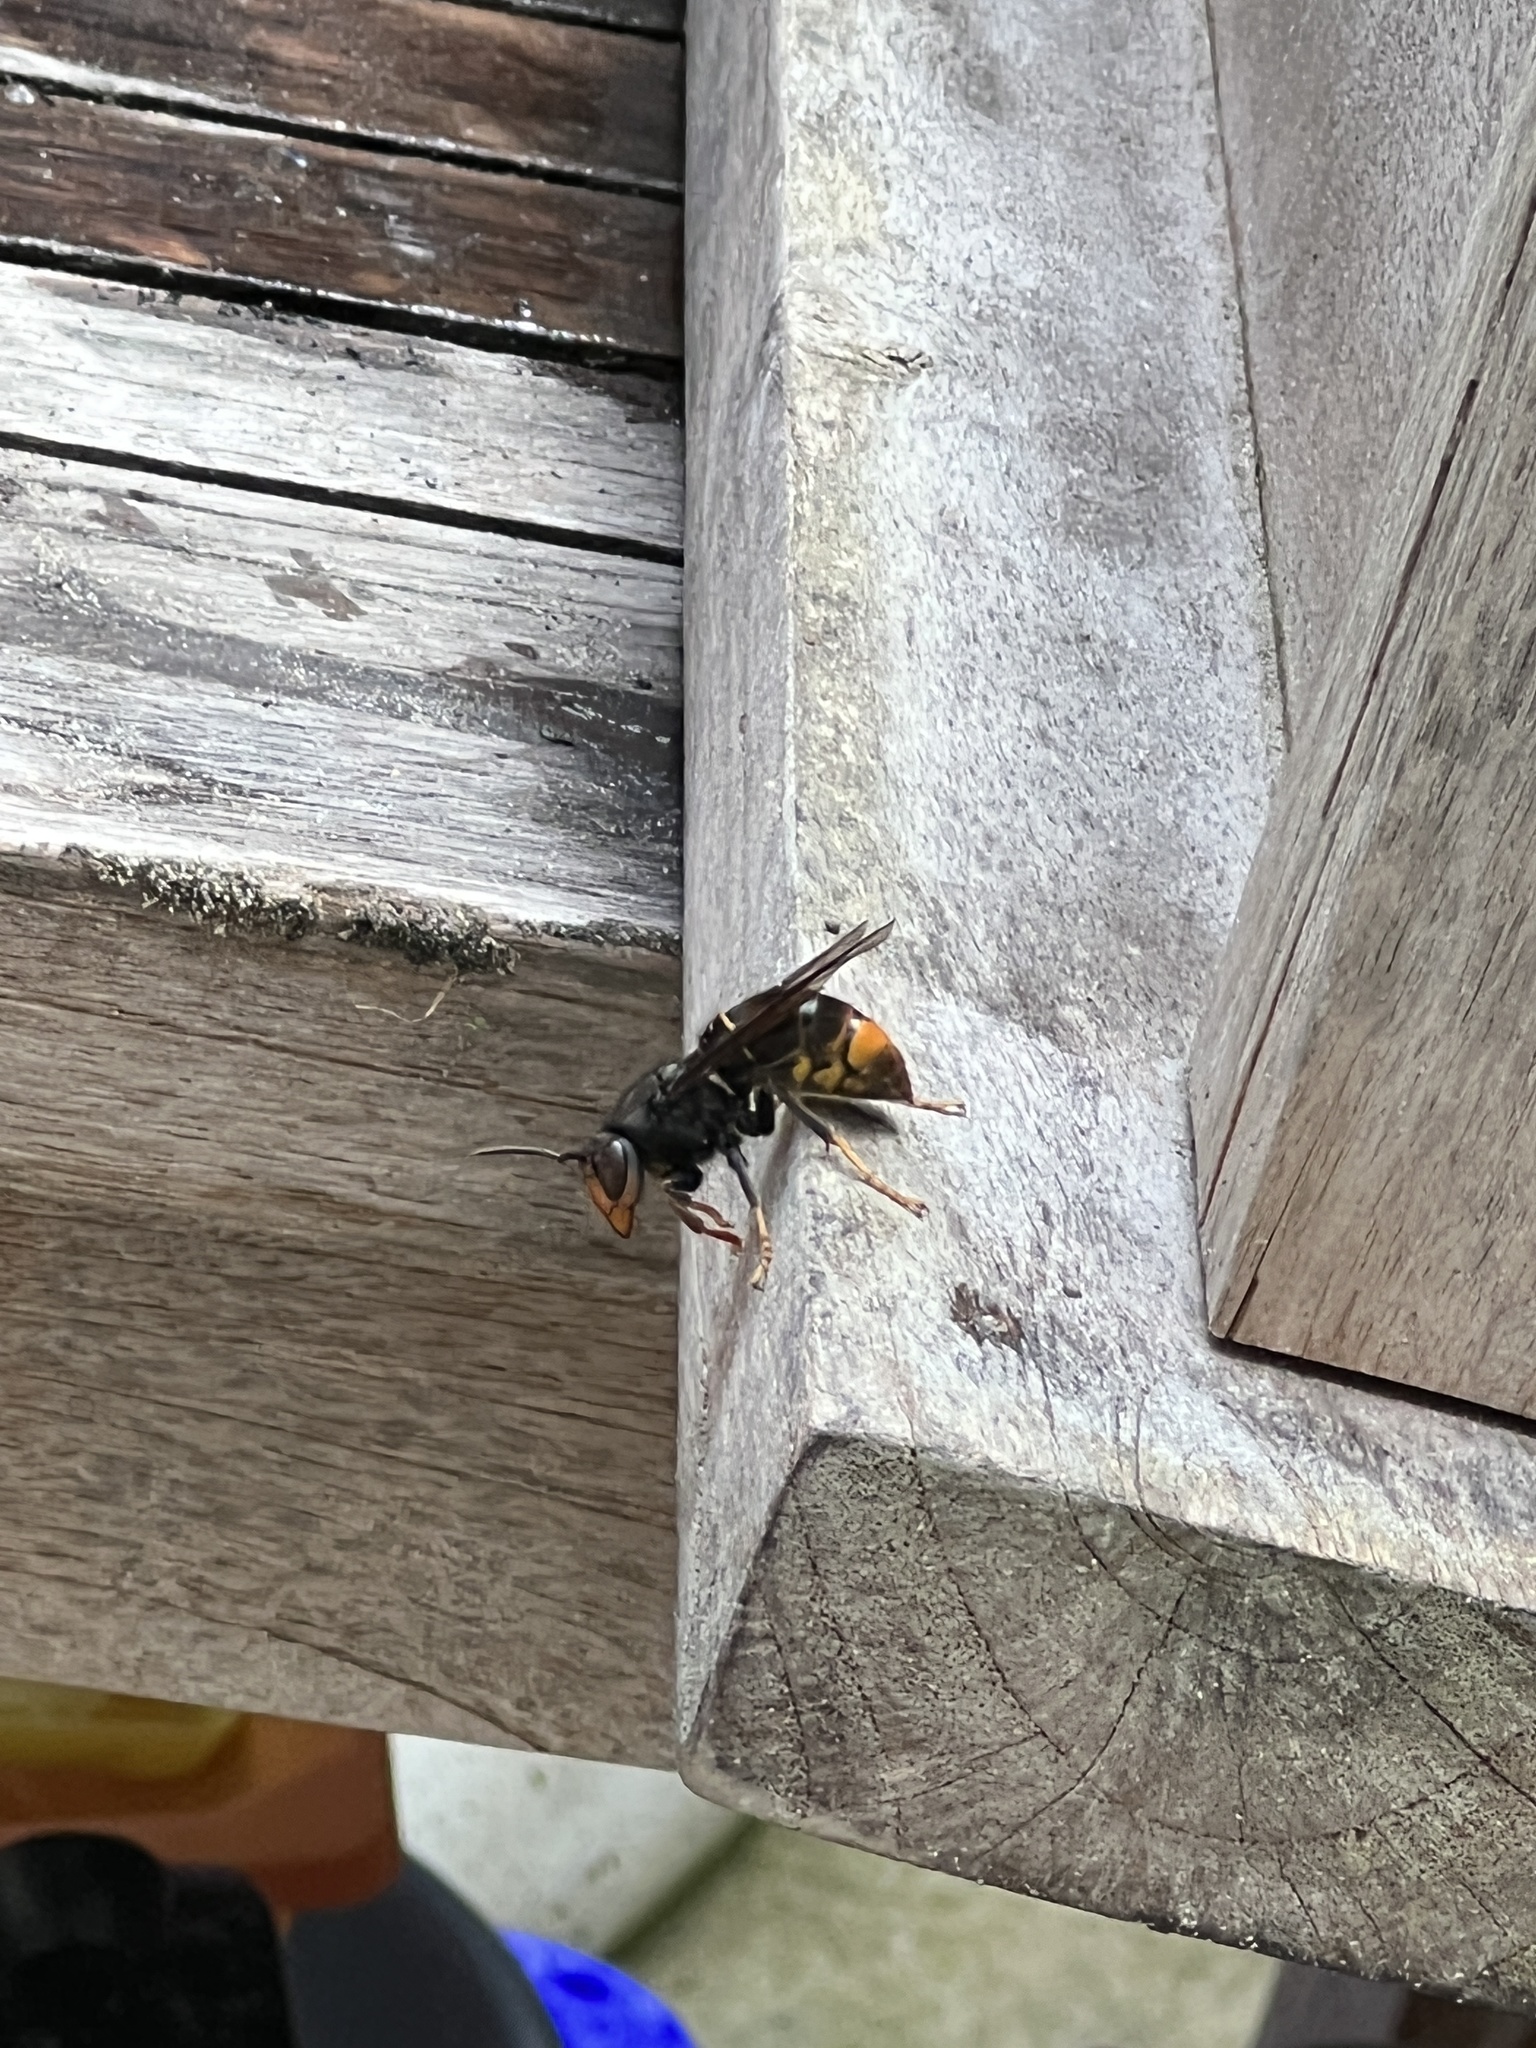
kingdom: Animalia
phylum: Arthropoda
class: Insecta
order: Hymenoptera
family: Vespidae
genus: Vespa
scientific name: Vespa velutina
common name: Asian hornet
